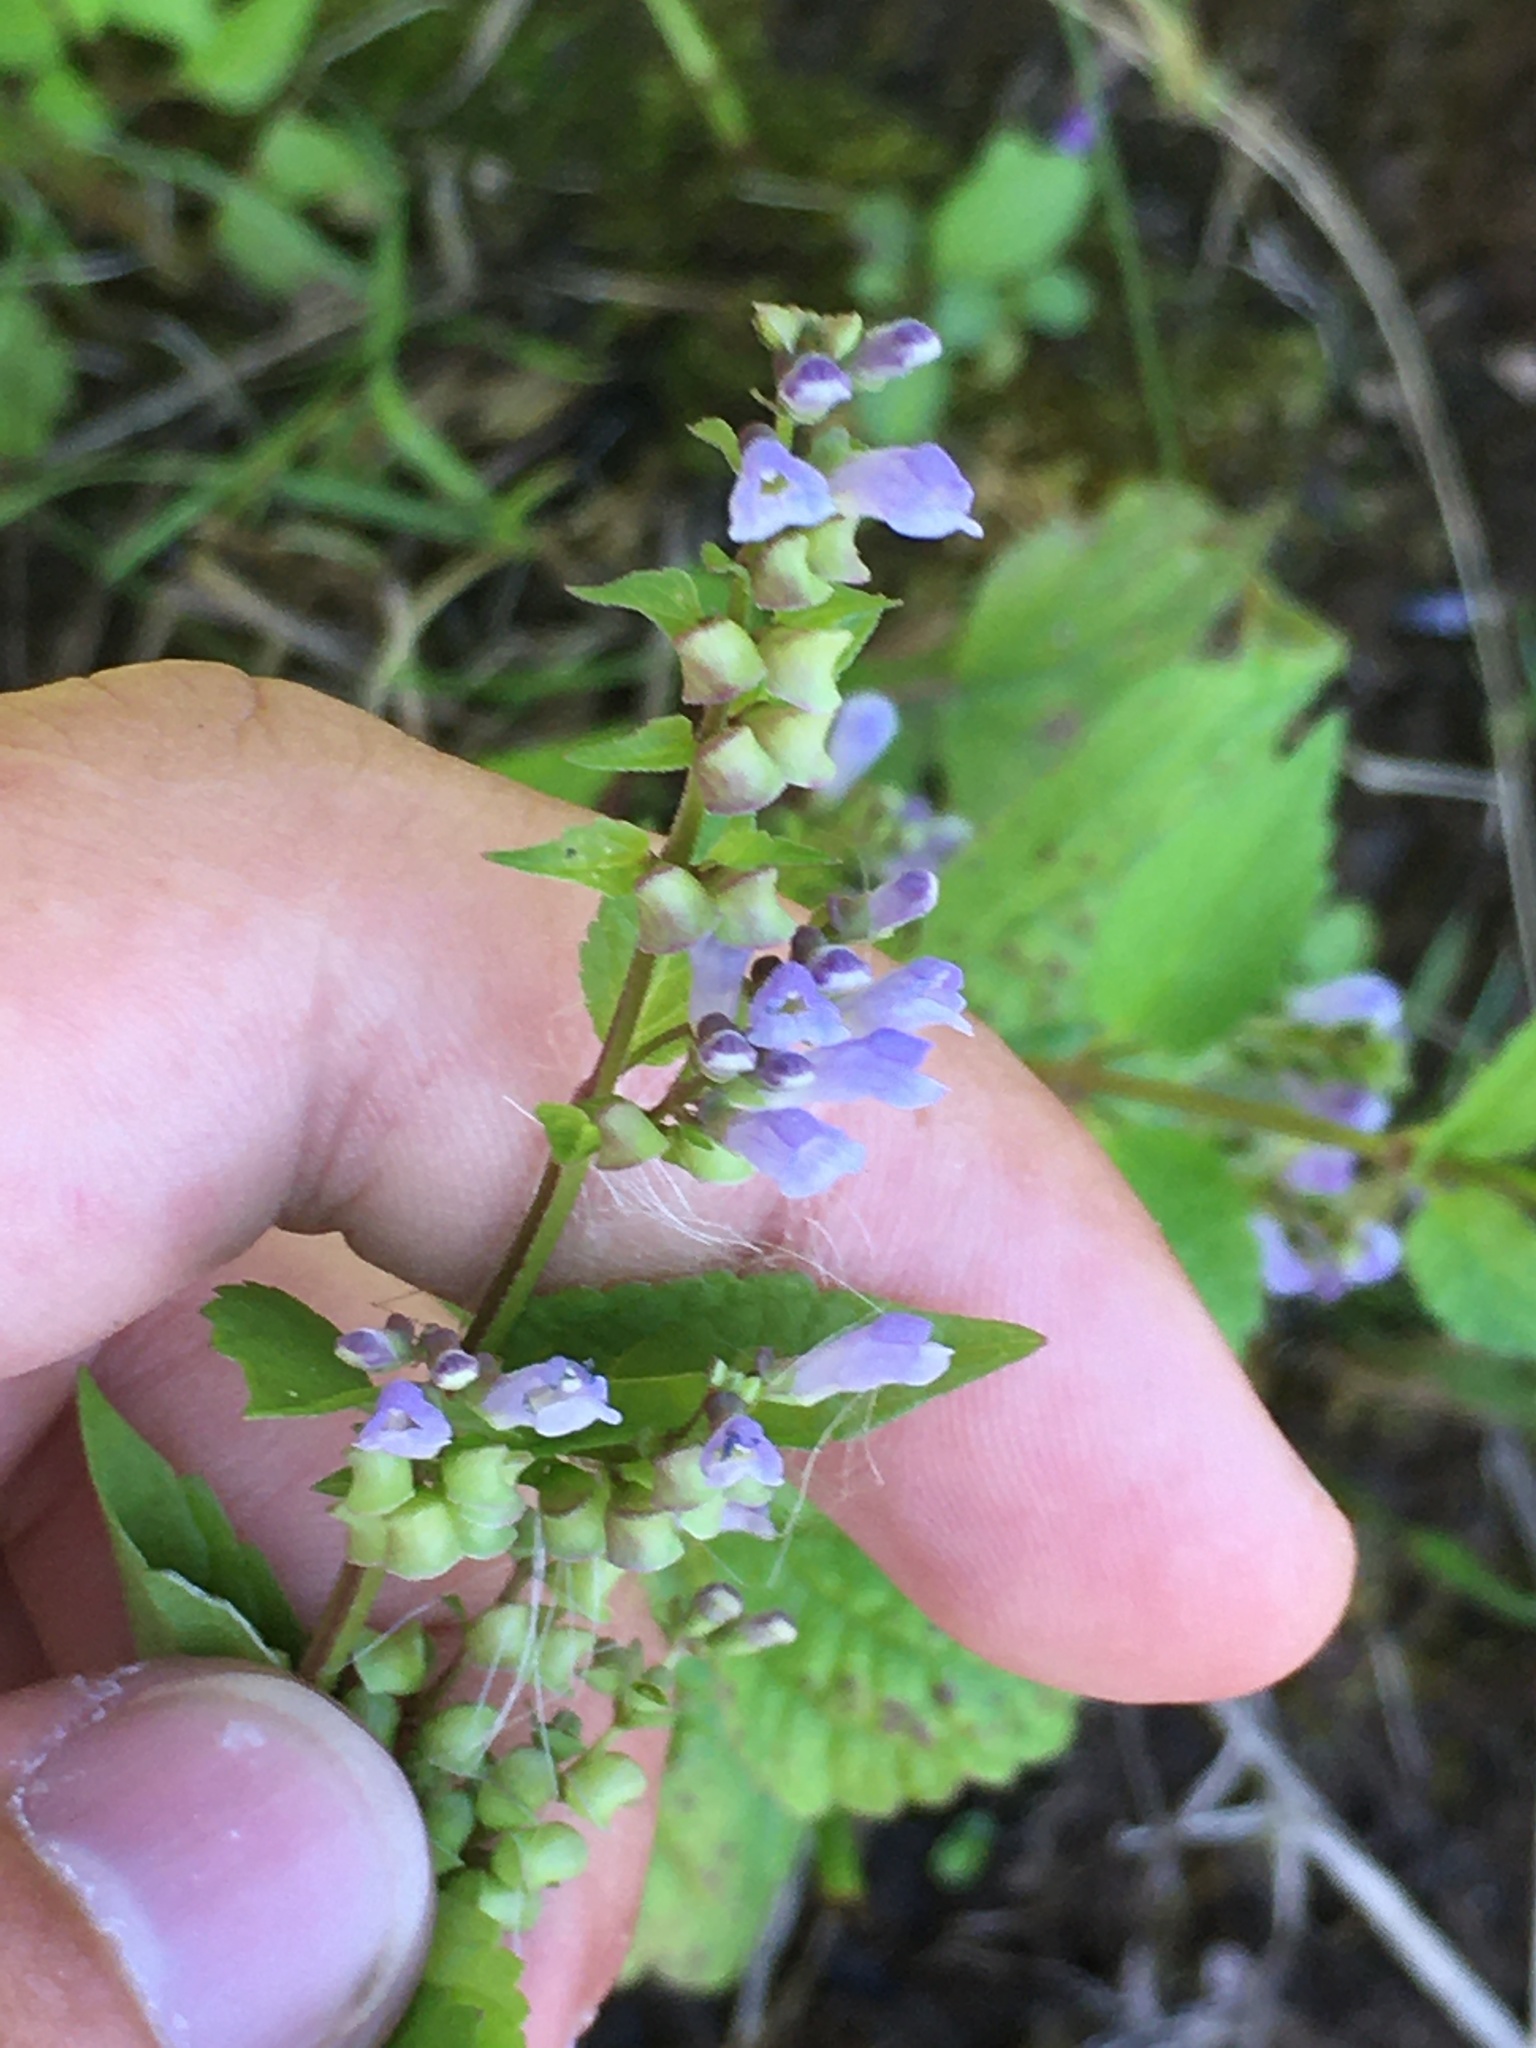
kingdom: Plantae
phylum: Tracheophyta
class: Magnoliopsida
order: Lamiales
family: Lamiaceae
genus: Scutellaria
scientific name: Scutellaria lateriflora
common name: Blue skullcap
